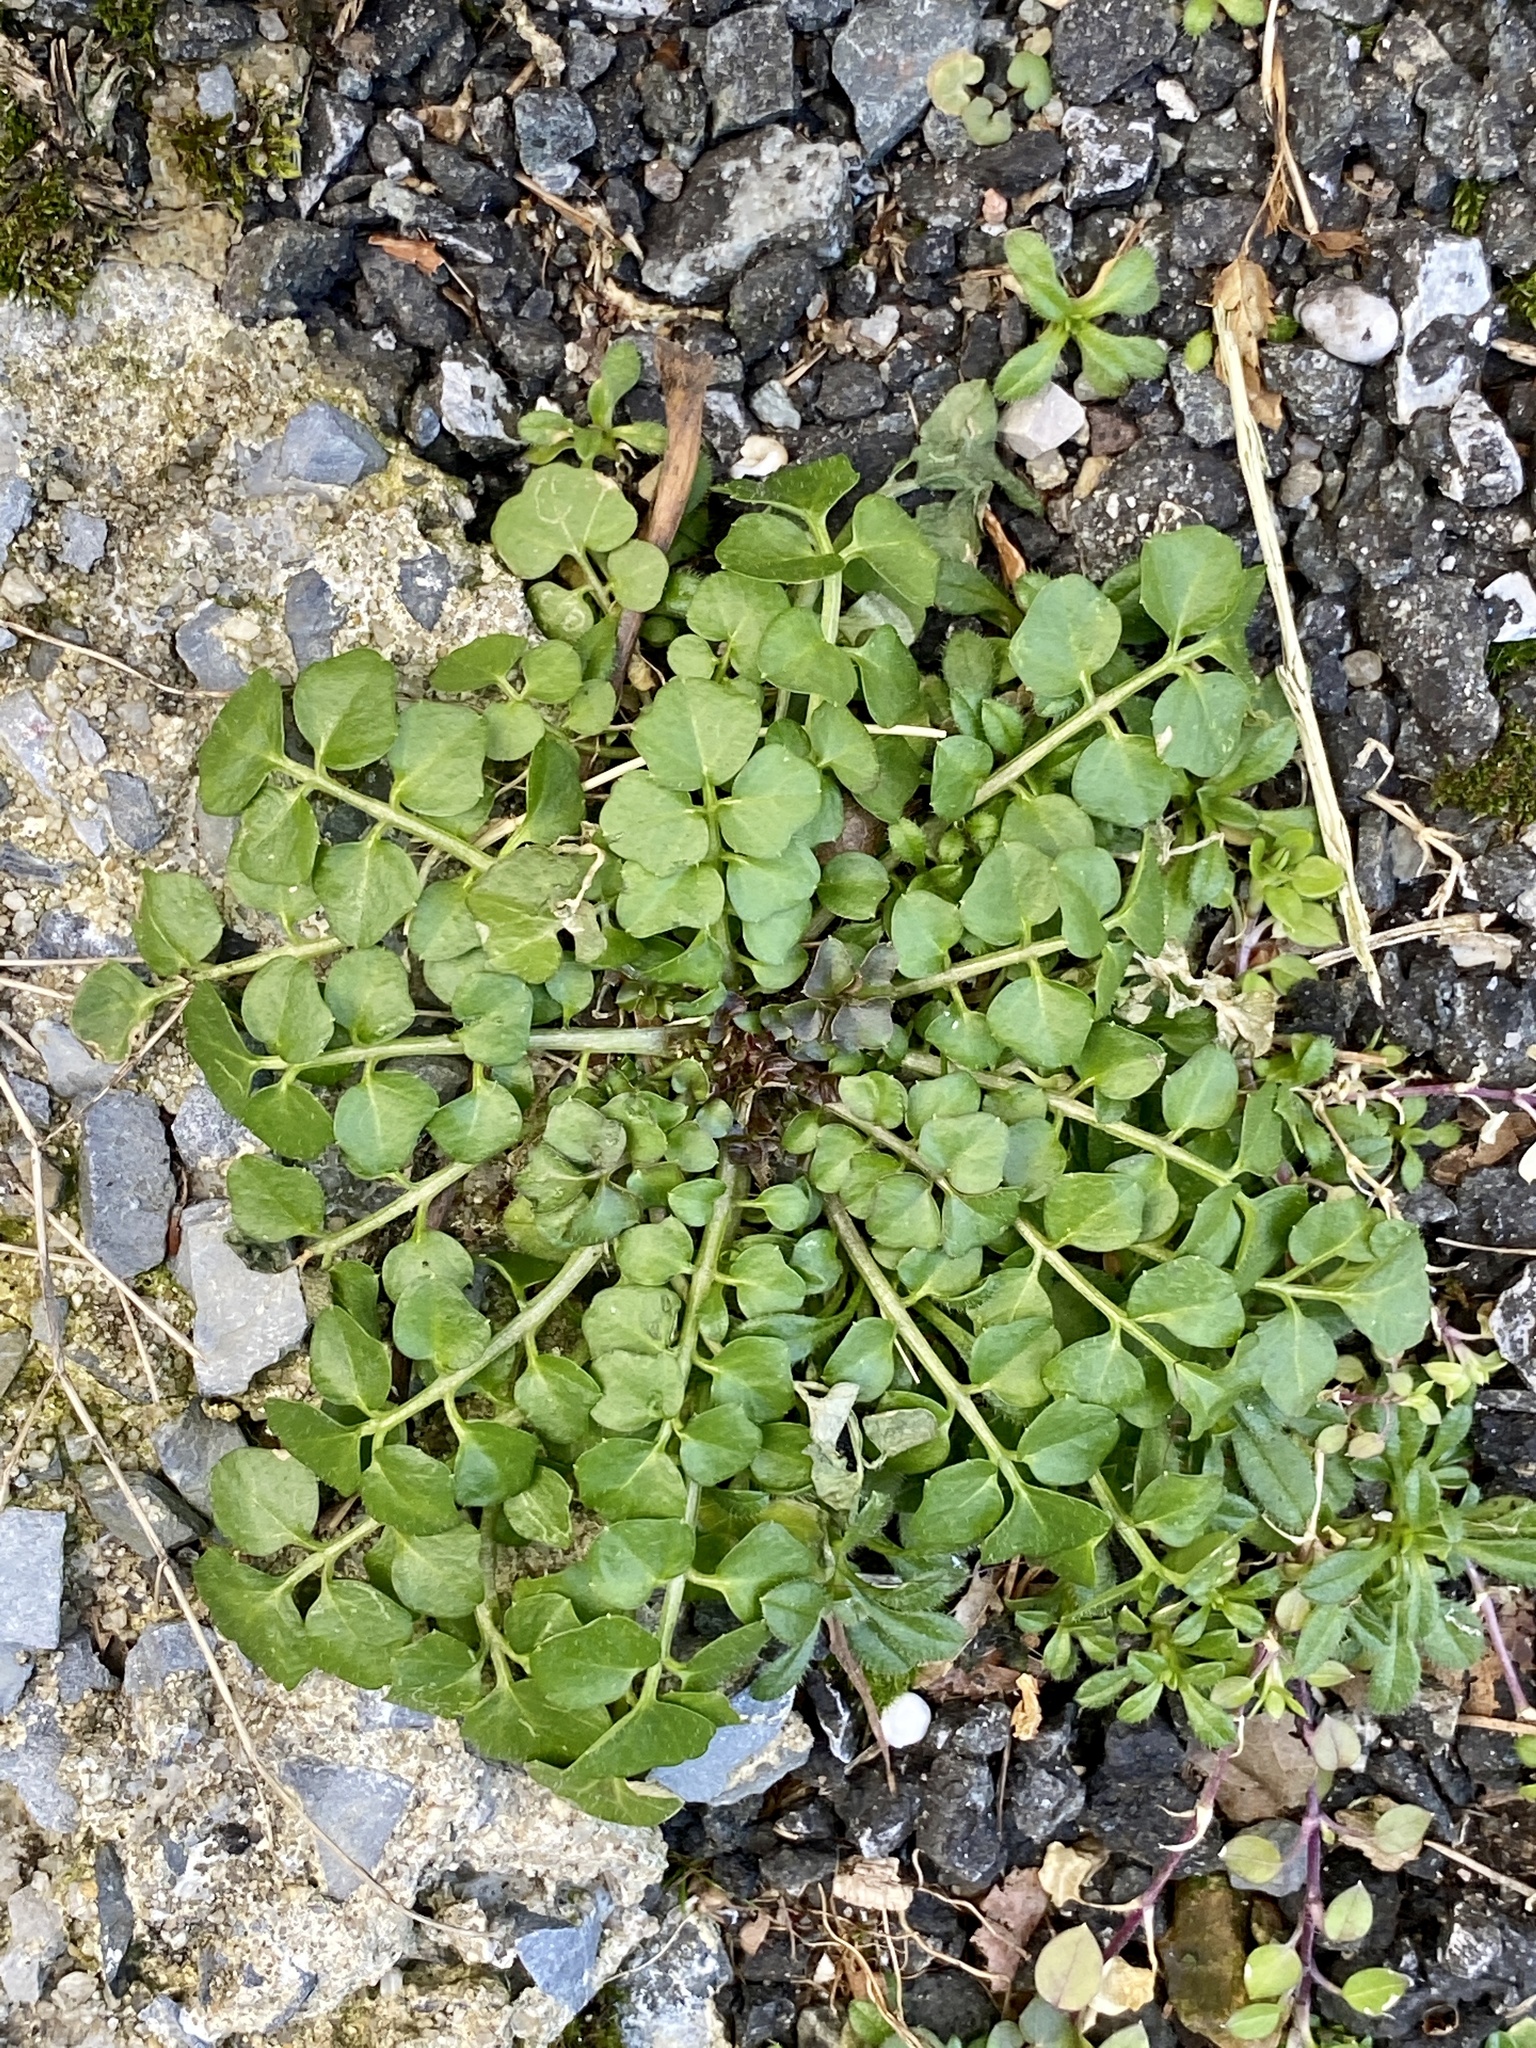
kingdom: Plantae
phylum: Tracheophyta
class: Magnoliopsida
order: Brassicales
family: Brassicaceae
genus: Cardamine
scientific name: Cardamine hirsuta
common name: Hairy bittercress
